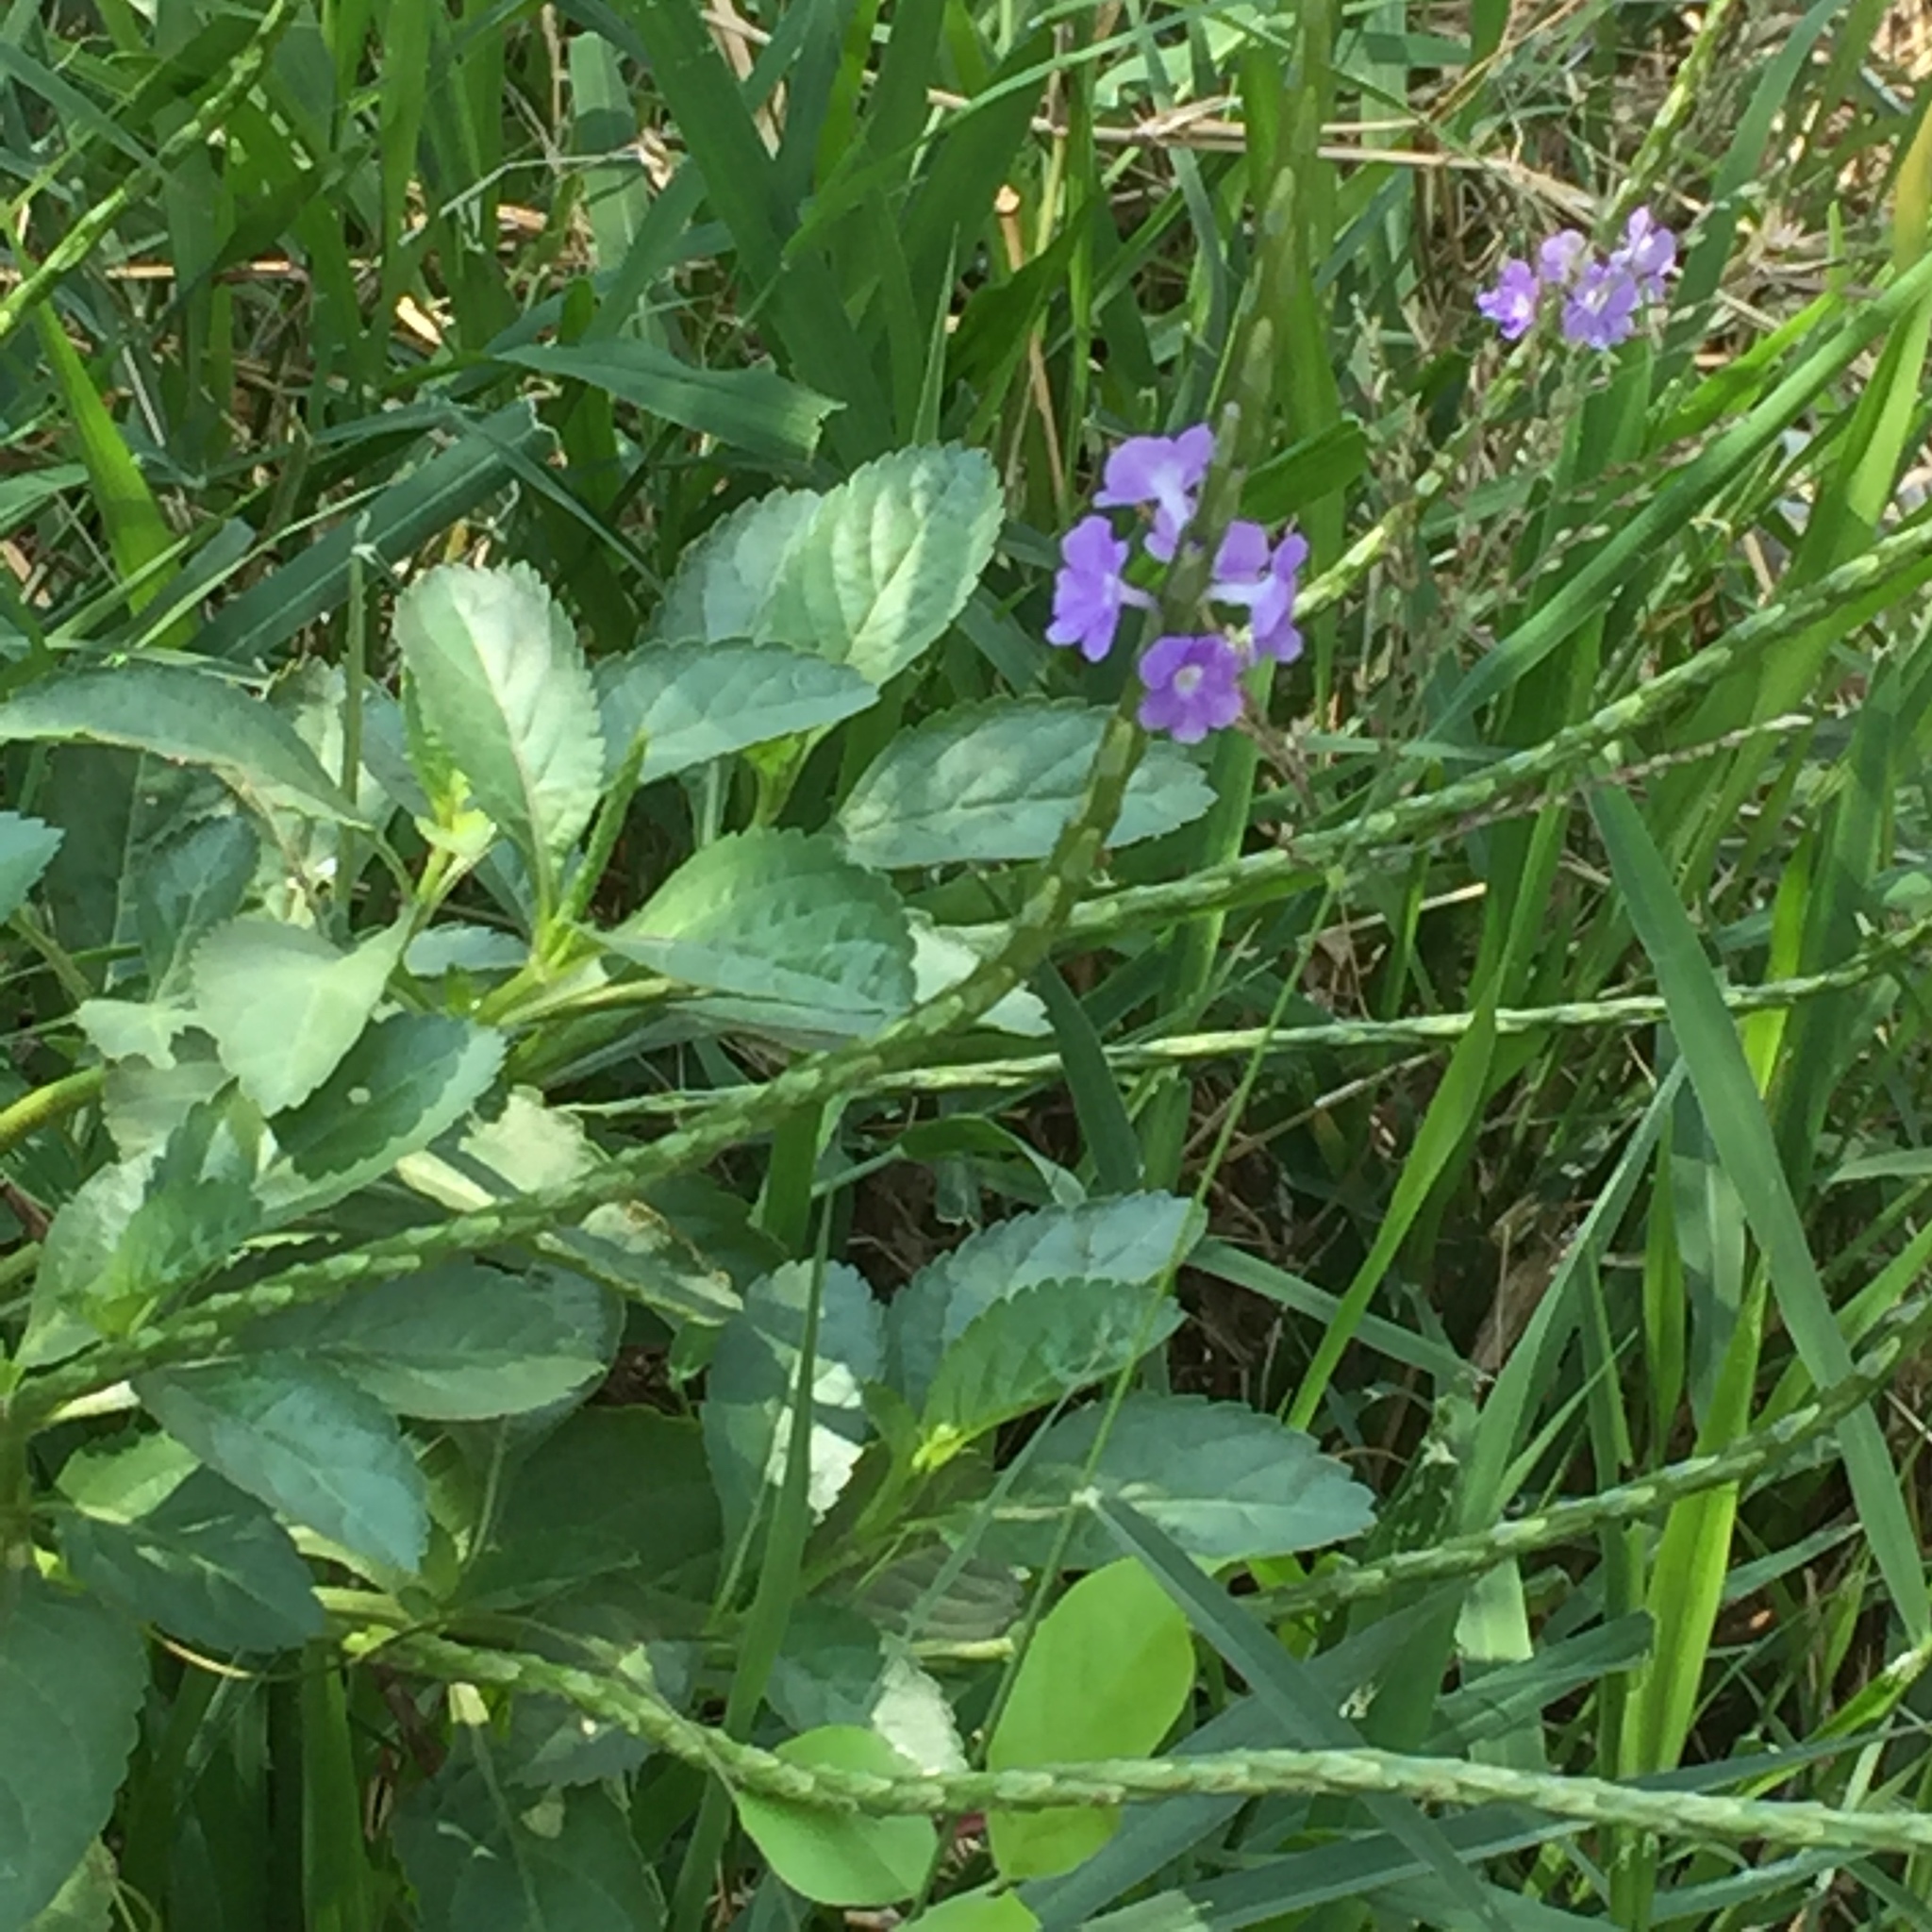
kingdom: Plantae
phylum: Tracheophyta
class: Magnoliopsida
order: Lamiales
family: Verbenaceae
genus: Stachytarpheta
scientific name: Stachytarpheta jamaicensis
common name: Light-blue snakeweed
